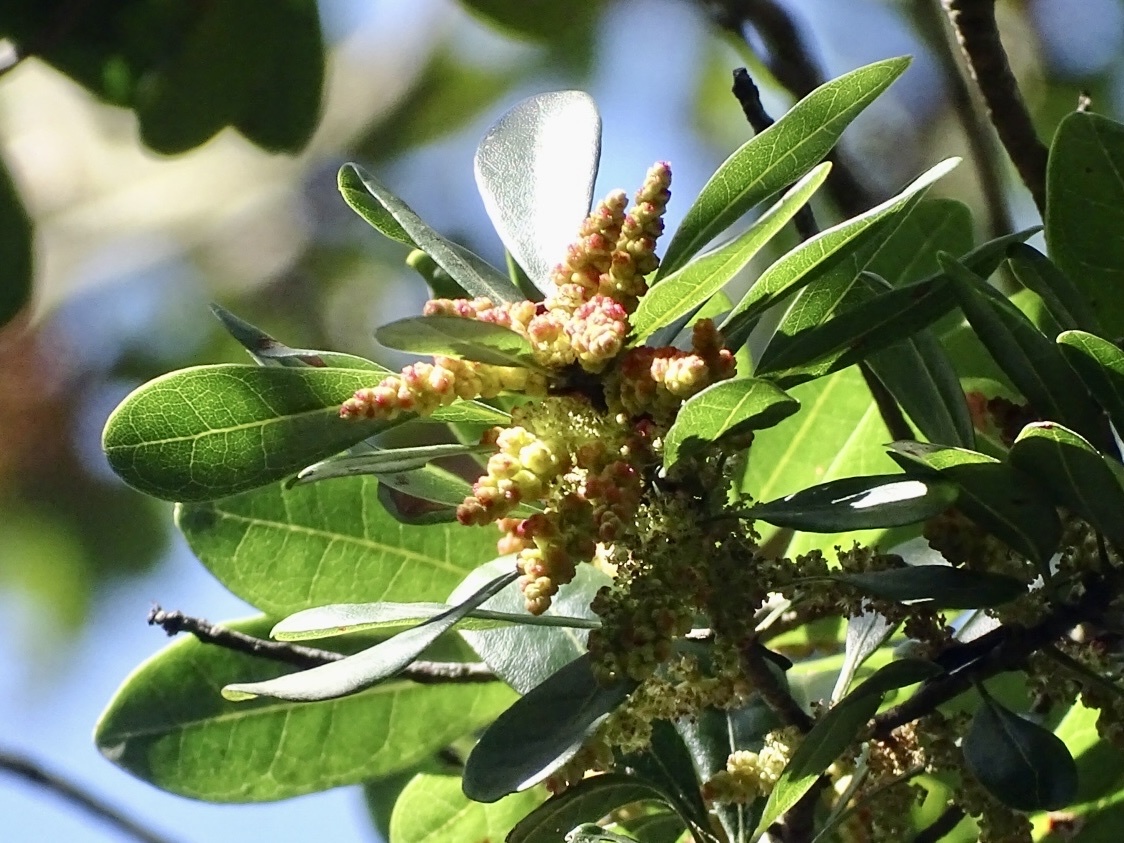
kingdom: Plantae
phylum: Tracheophyta
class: Magnoliopsida
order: Fagales
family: Myricaceae
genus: Morella
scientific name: Morella rubra
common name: Red bayberry
